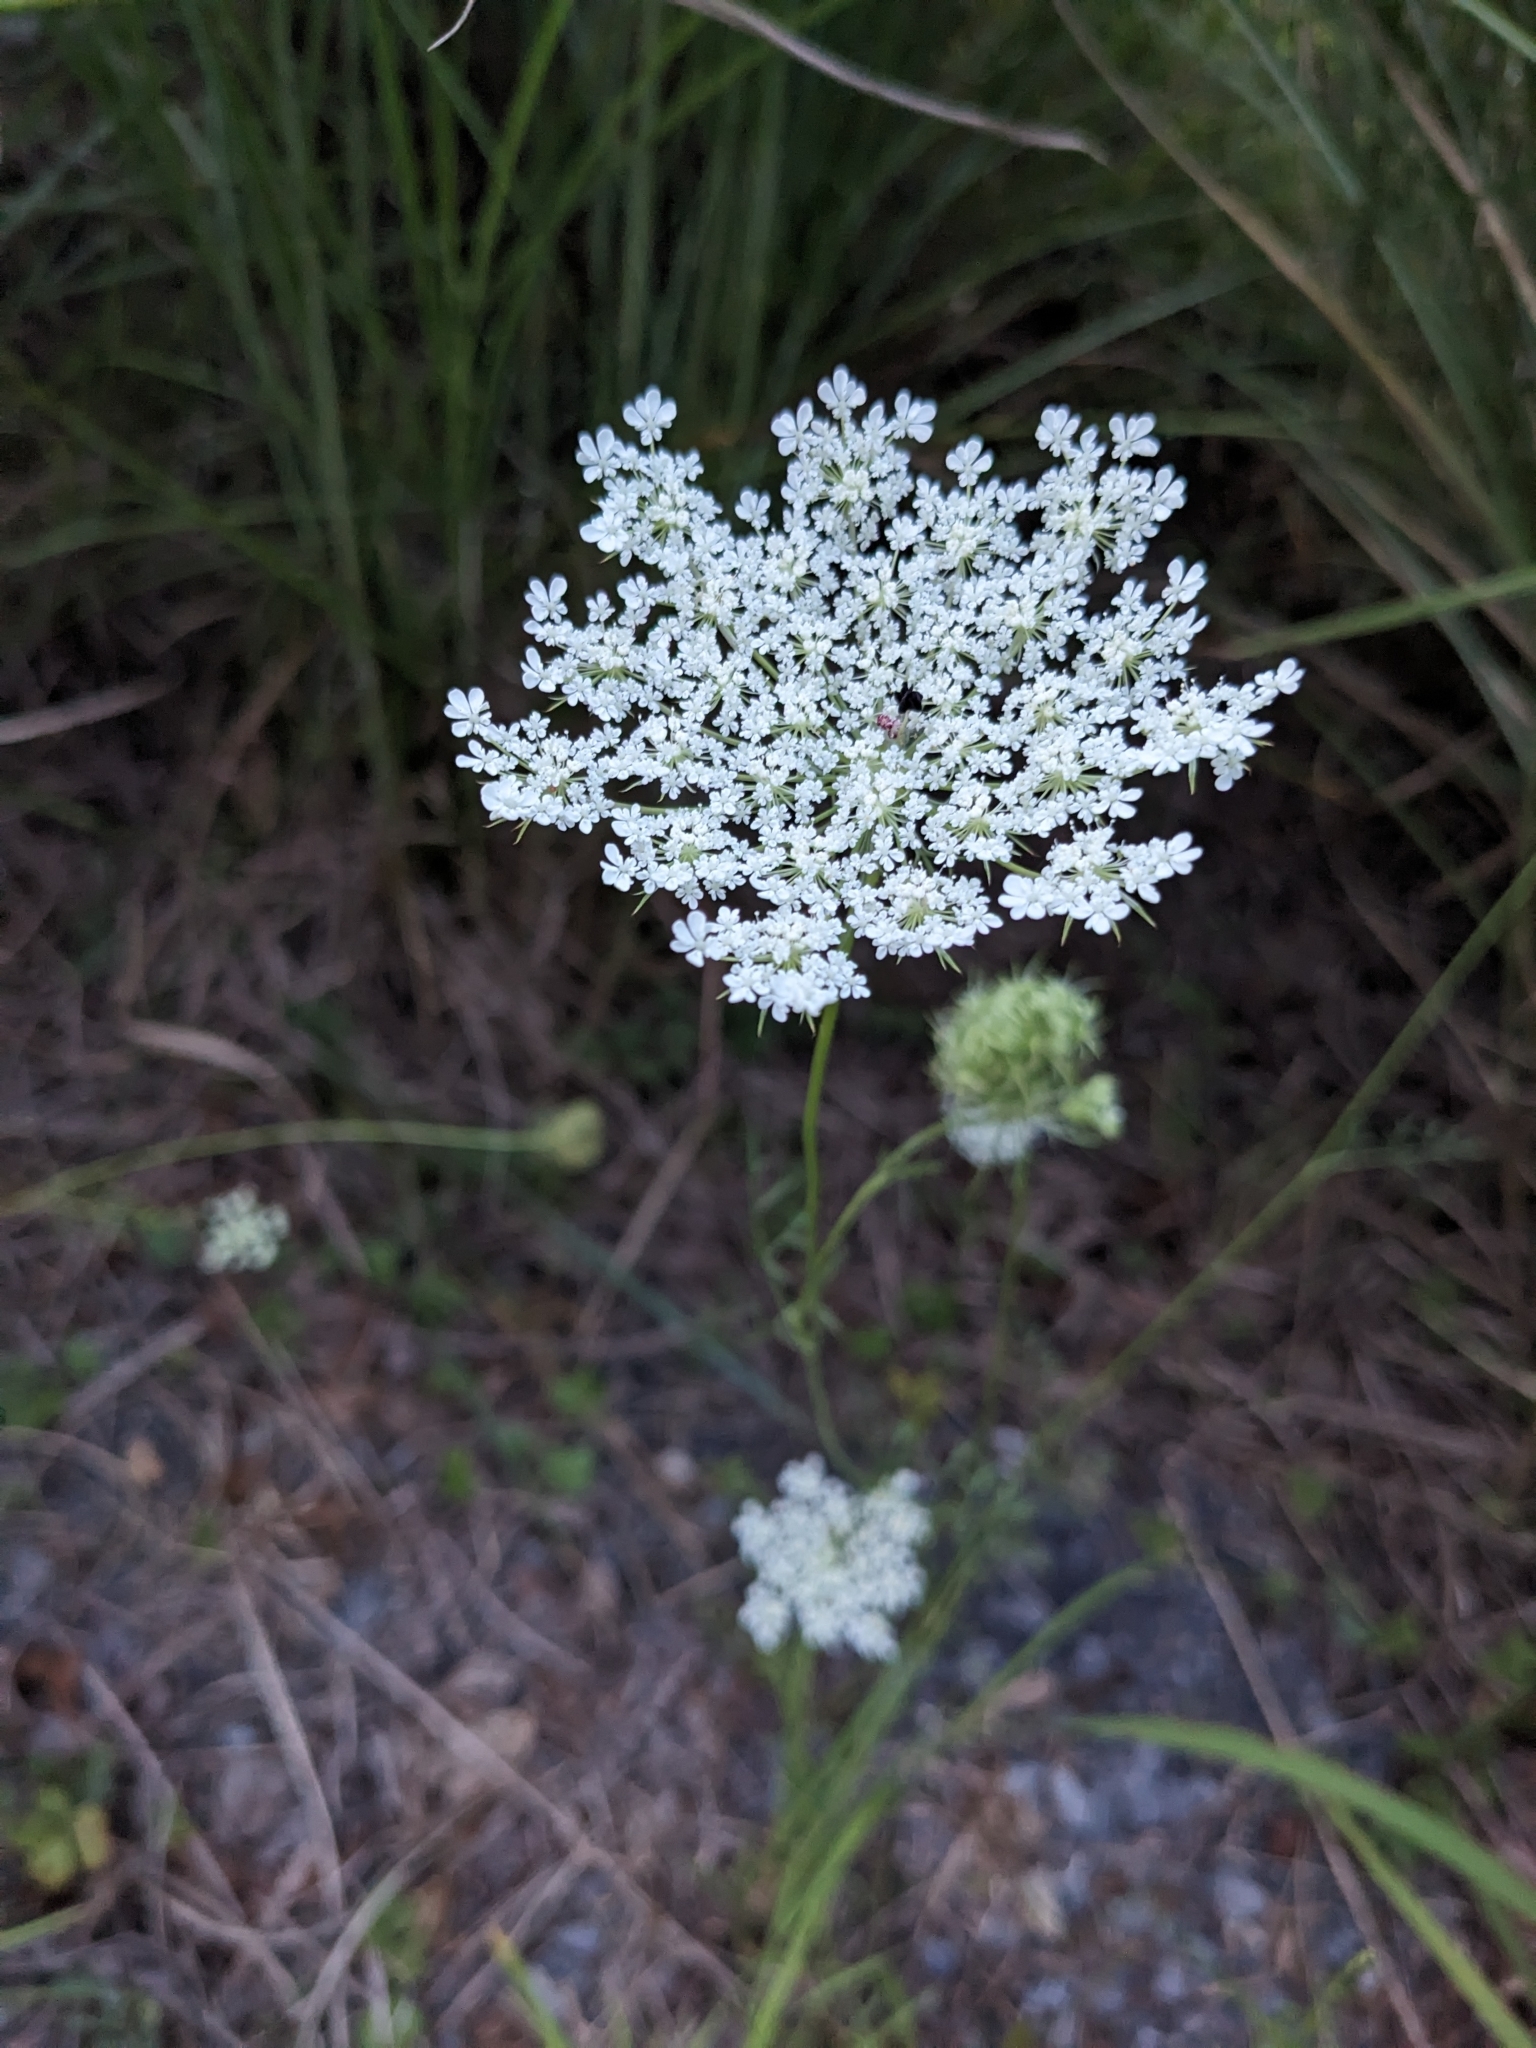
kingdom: Plantae
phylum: Tracheophyta
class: Magnoliopsida
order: Apiales
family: Apiaceae
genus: Daucus
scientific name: Daucus carota
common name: Wild carrot
